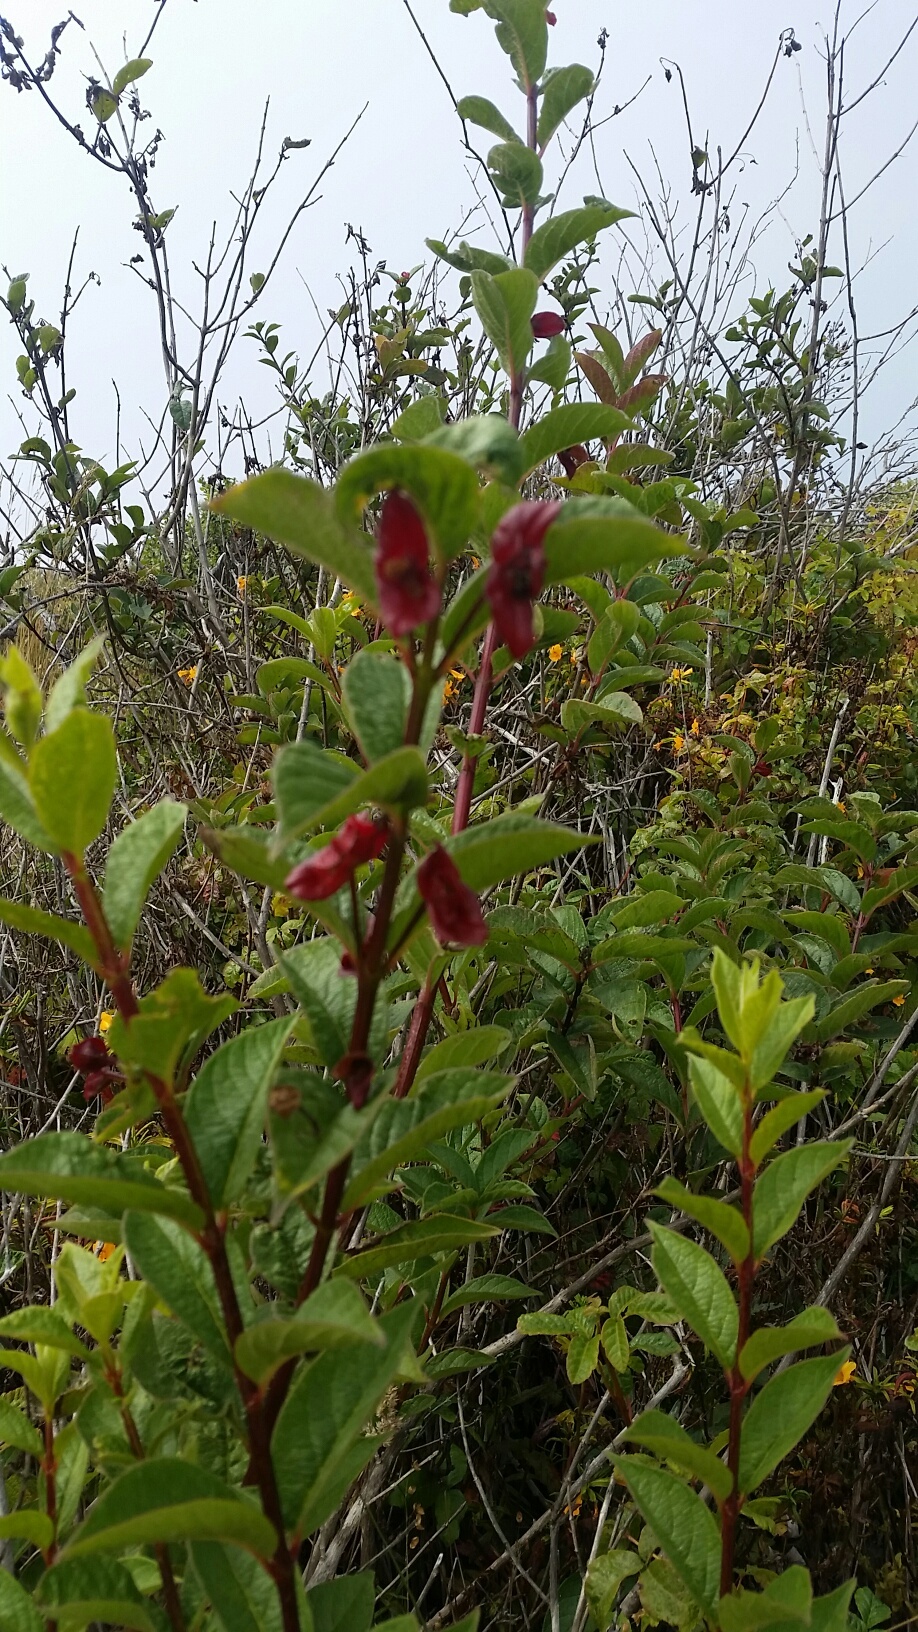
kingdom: Plantae
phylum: Tracheophyta
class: Magnoliopsida
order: Dipsacales
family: Caprifoliaceae
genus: Lonicera
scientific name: Lonicera involucrata
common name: Californian honeysuckle
